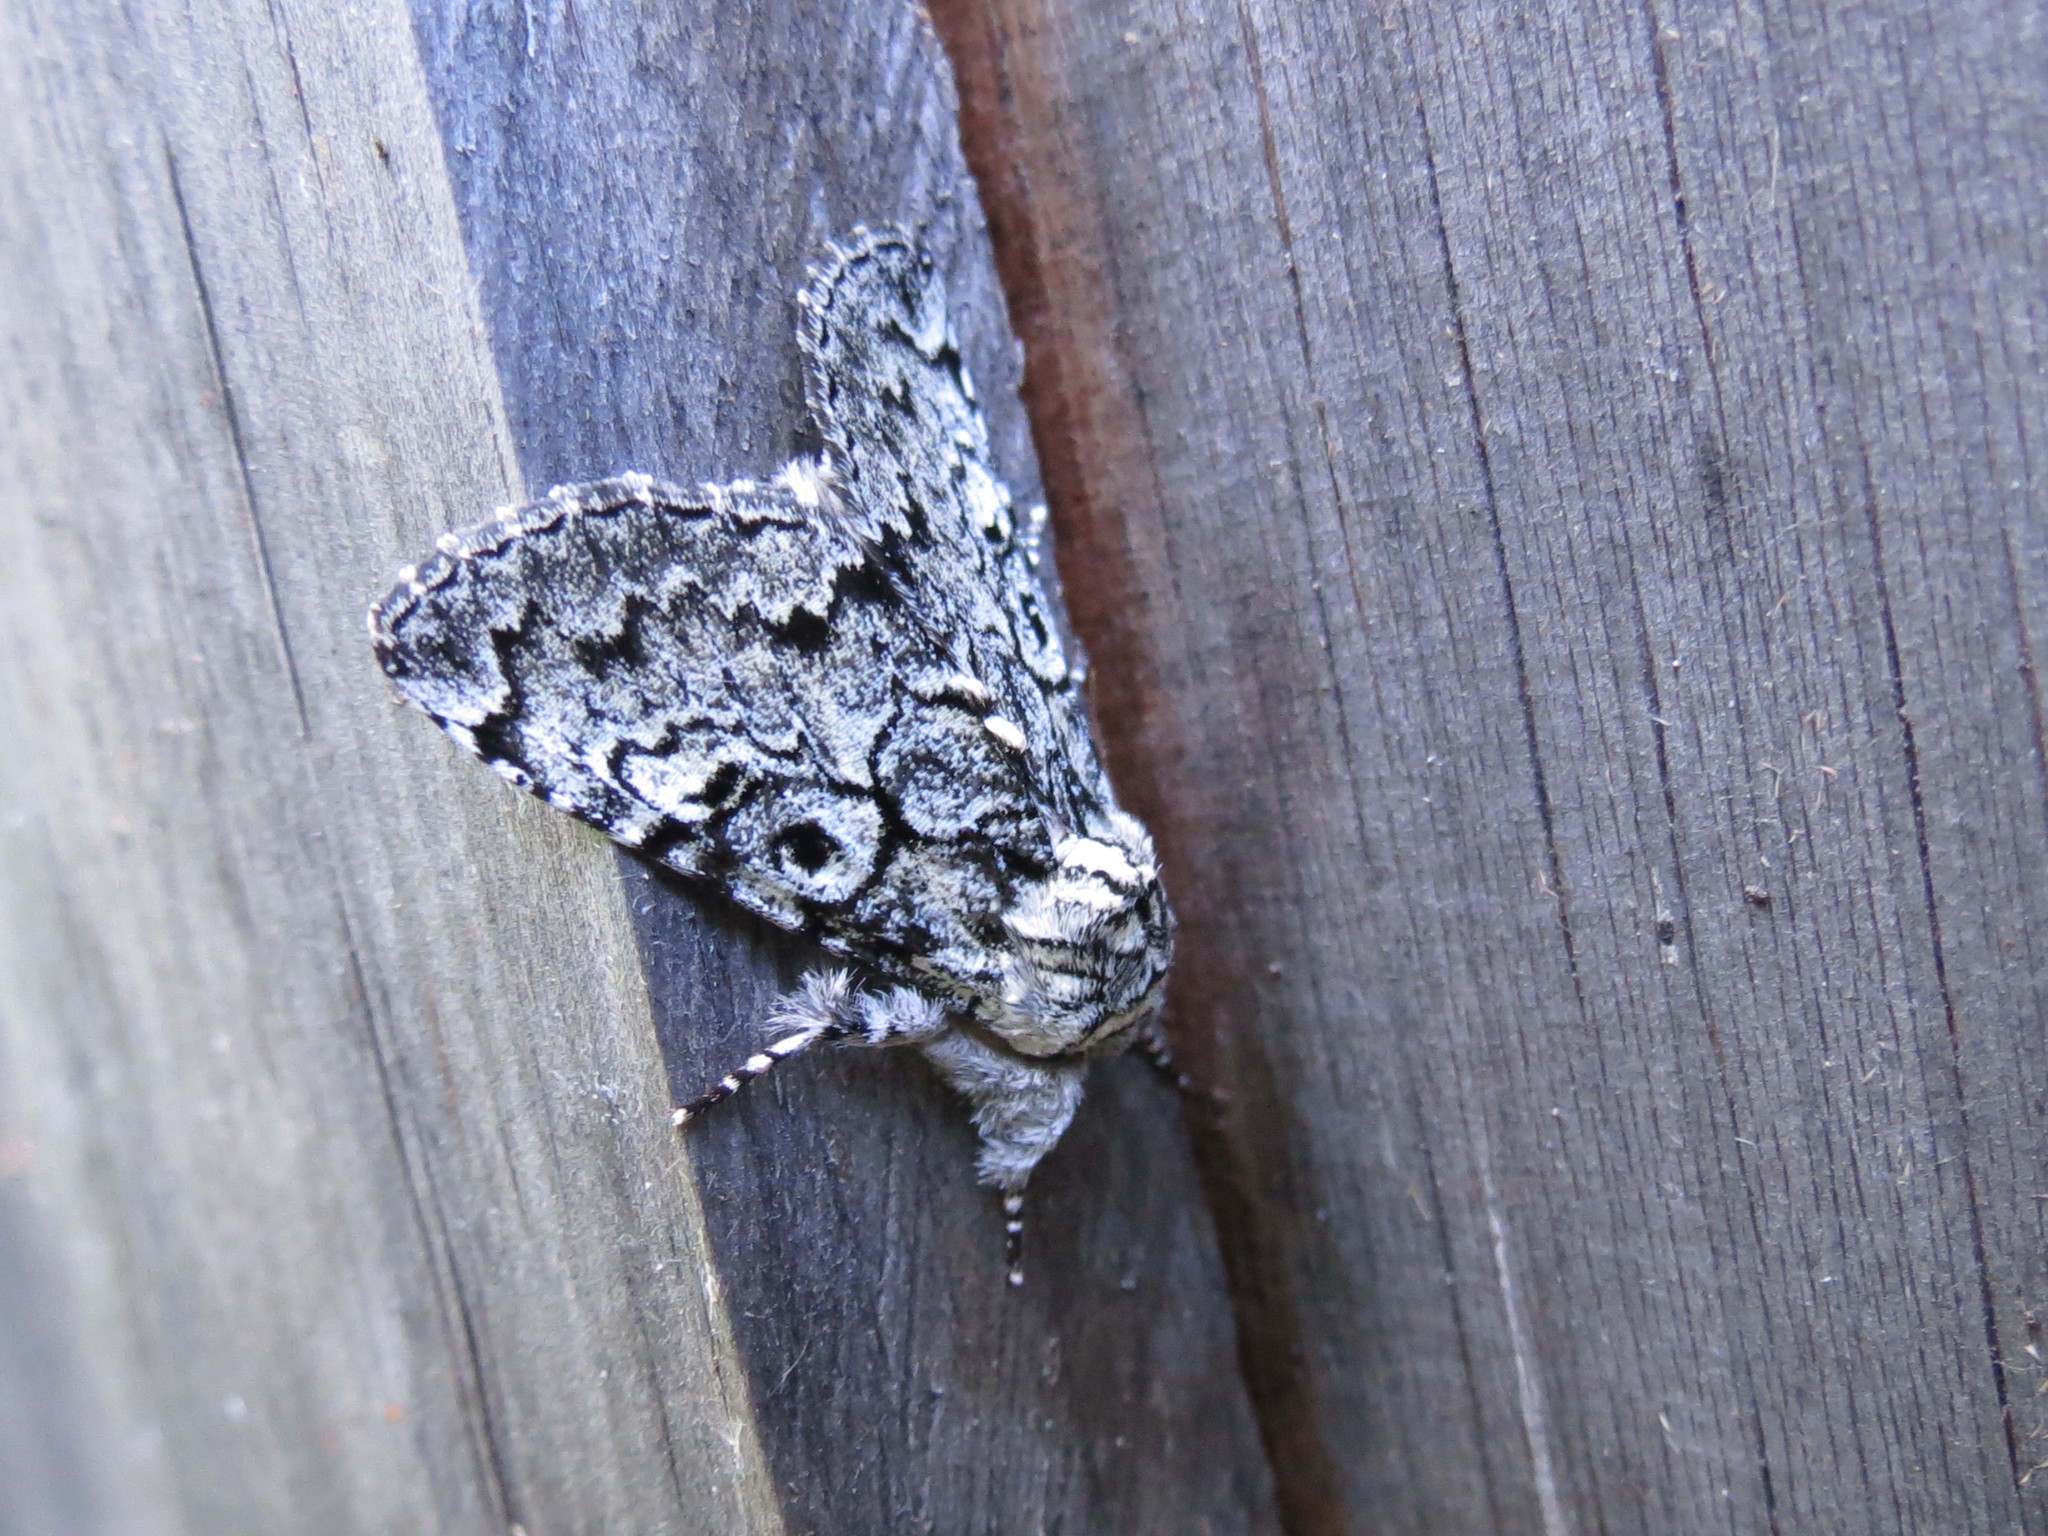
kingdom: Animalia
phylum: Arthropoda
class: Insecta
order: Lepidoptera
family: Noctuidae
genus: Charadra
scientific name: Charadra deridens
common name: Marbled tuffet
